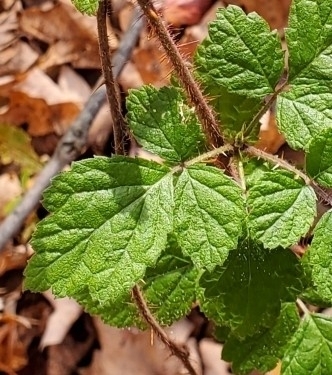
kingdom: Plantae
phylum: Tracheophyta
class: Magnoliopsida
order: Rosales
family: Rosaceae
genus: Rubus
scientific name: Rubus phoenicolasius
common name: Japanese wineberry
